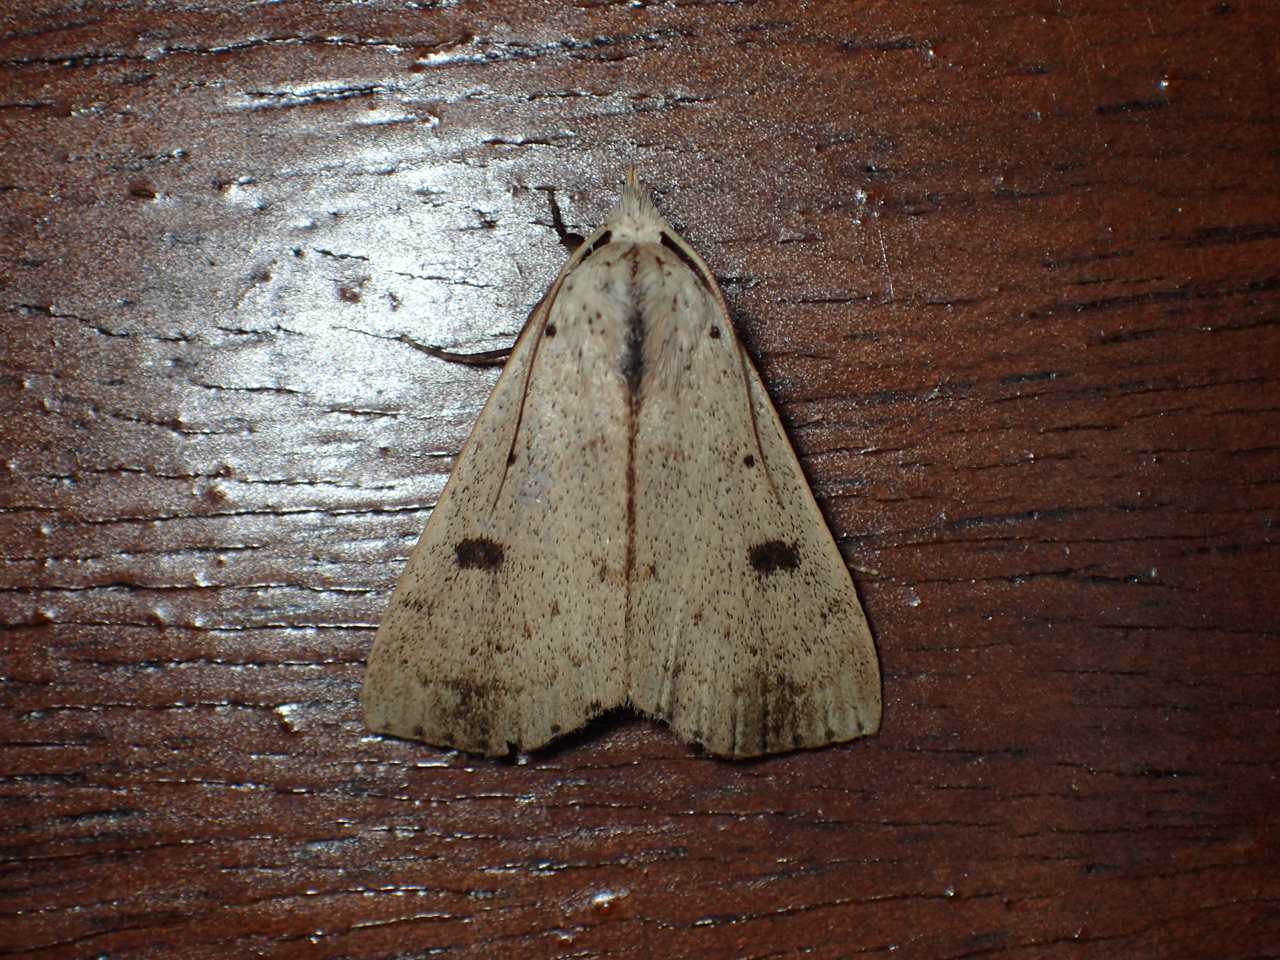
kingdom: Animalia
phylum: Arthropoda
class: Insecta
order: Lepidoptera
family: Erebidae
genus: Scolecocampa
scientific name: Scolecocampa liburna
